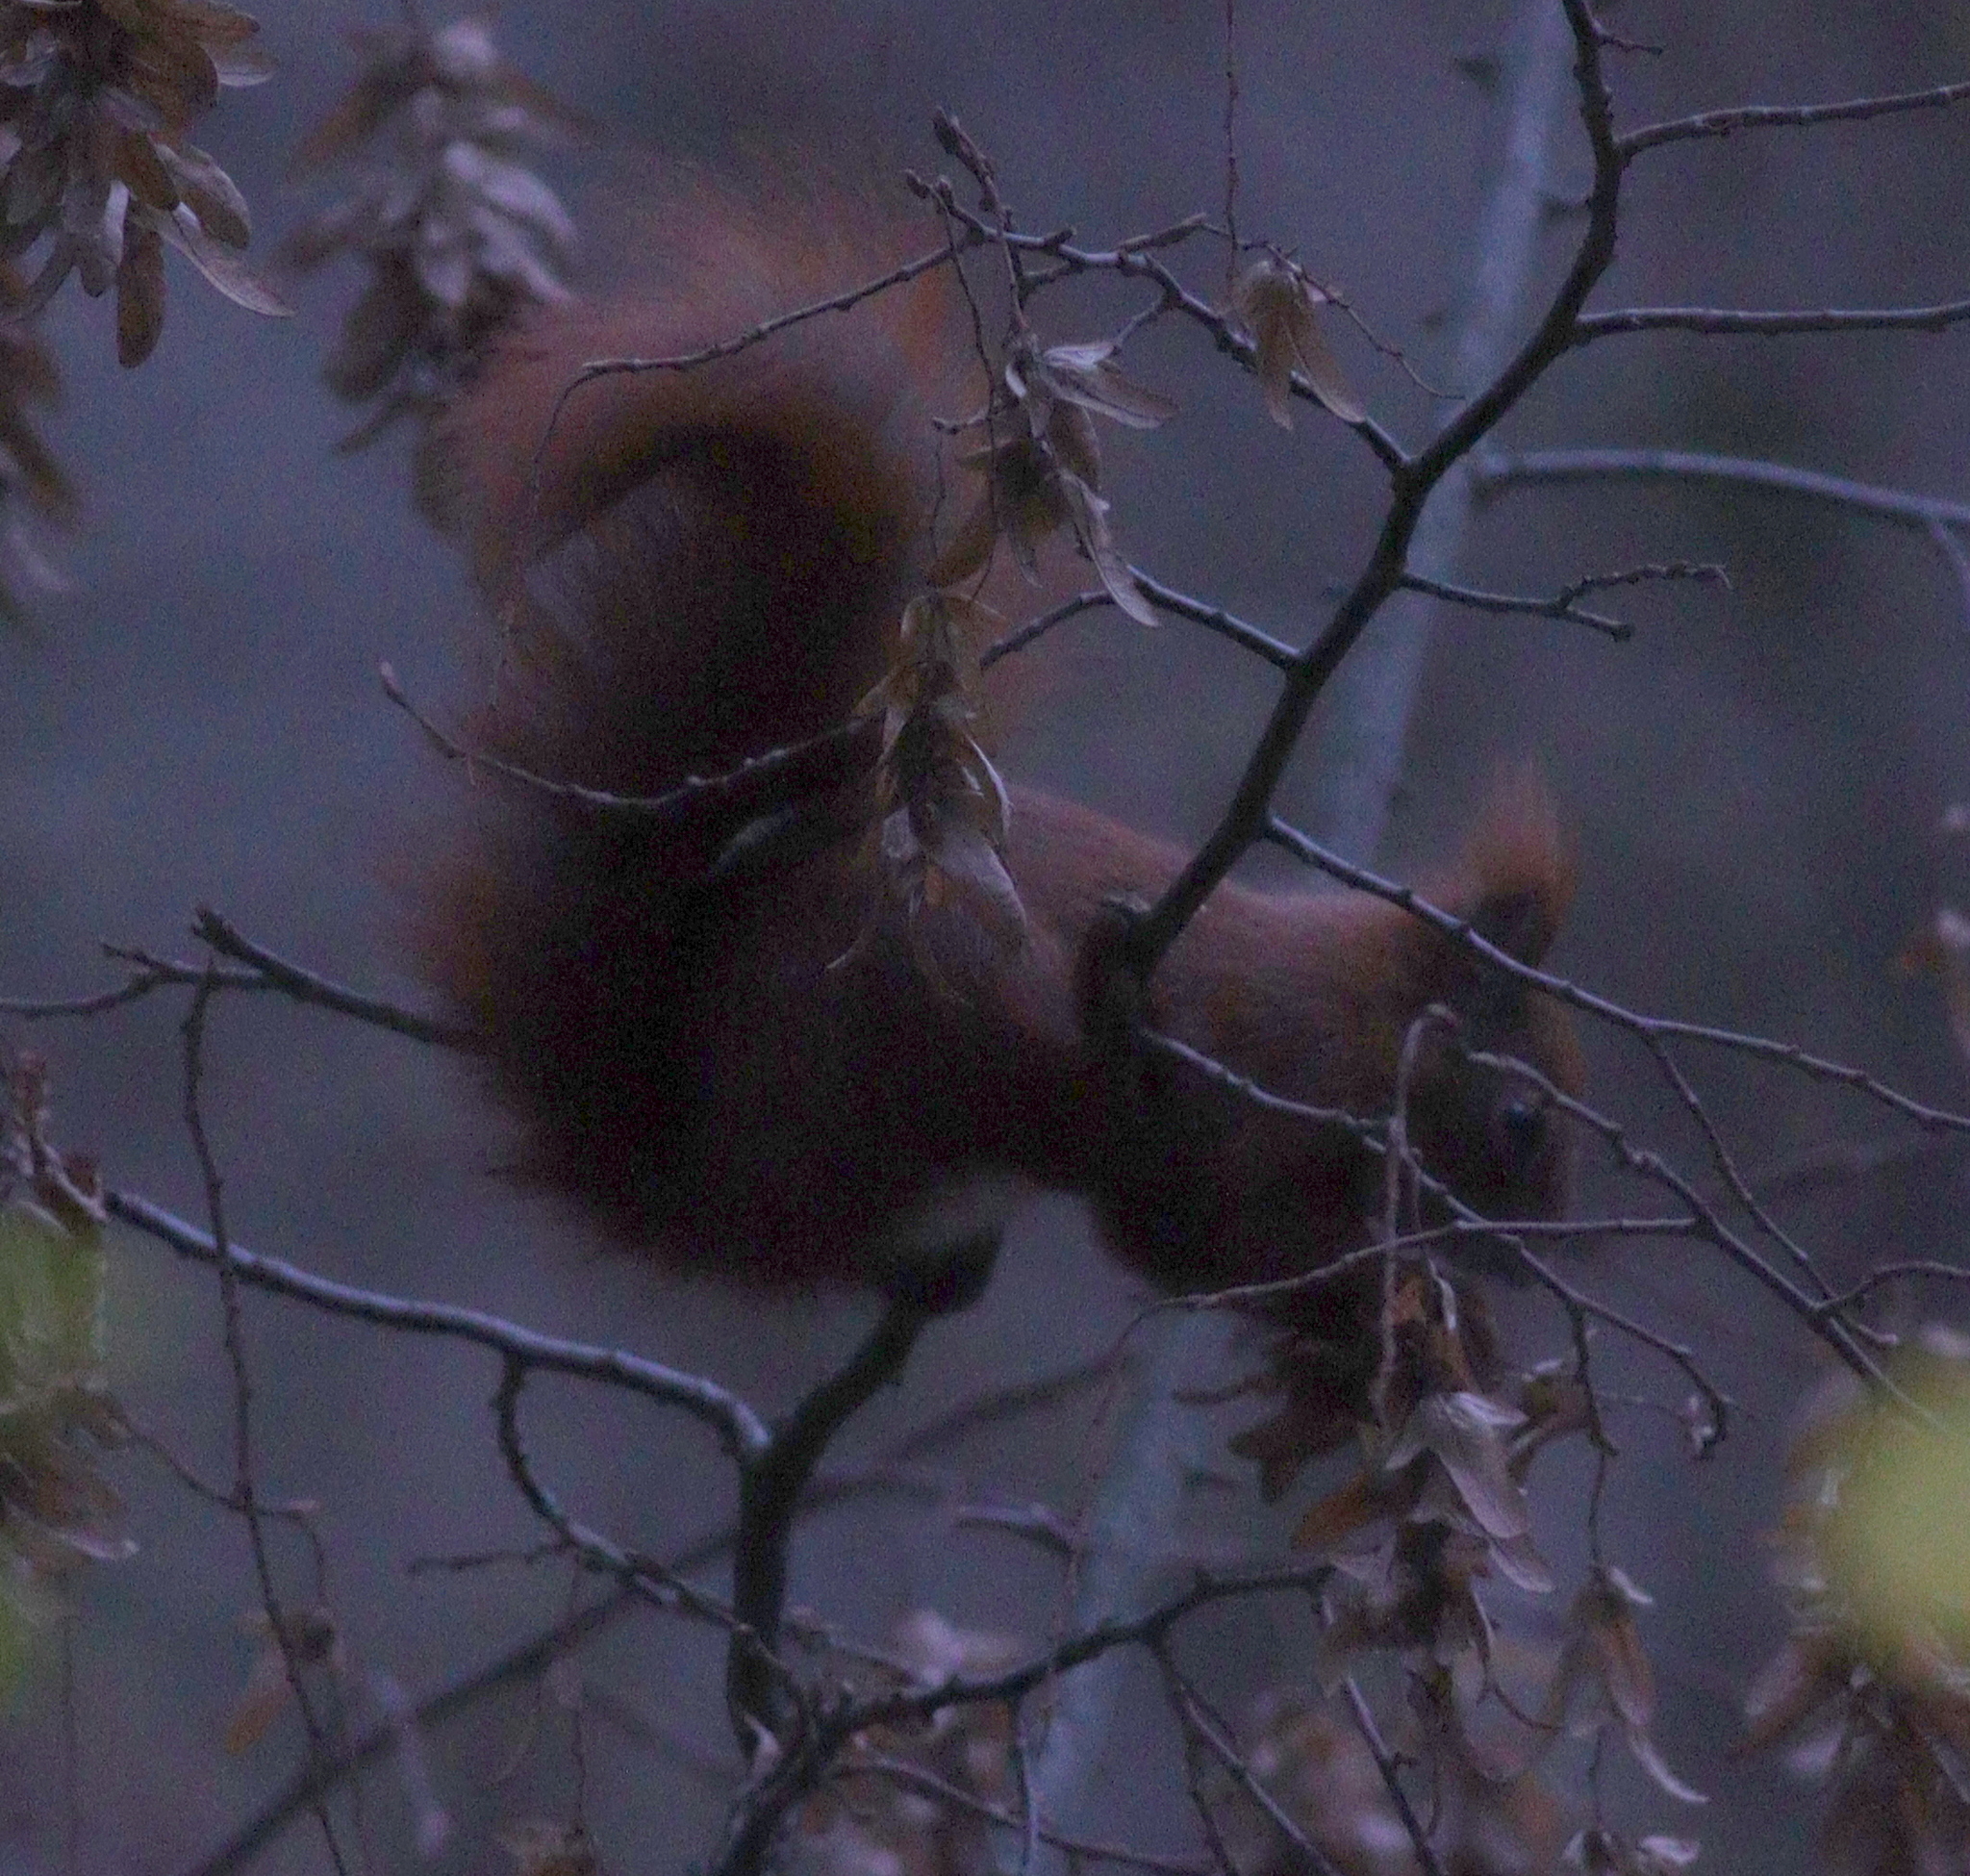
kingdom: Animalia
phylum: Chordata
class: Mammalia
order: Rodentia
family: Sciuridae
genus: Sciurus
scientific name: Sciurus vulgaris
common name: Eurasian red squirrel
